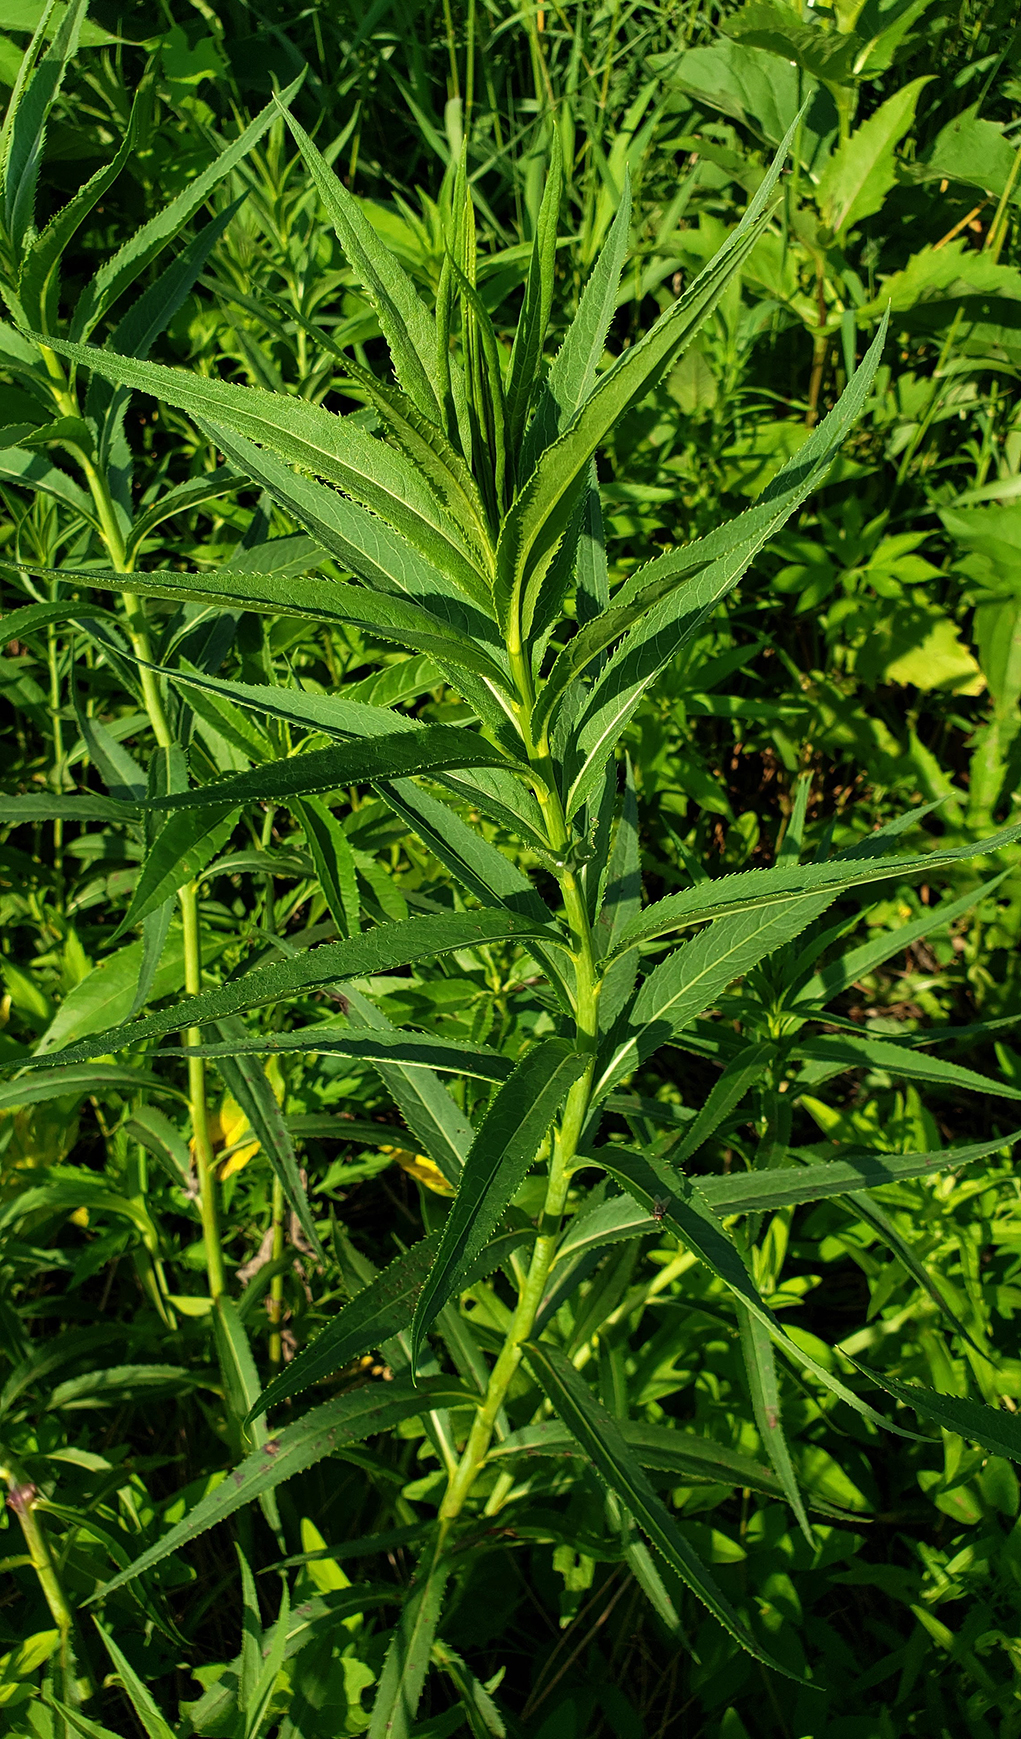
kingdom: Plantae
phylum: Tracheophyta
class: Magnoliopsida
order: Asterales
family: Asteraceae
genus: Vernonia
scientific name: Vernonia fasciculata
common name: Fascicled ironweed
